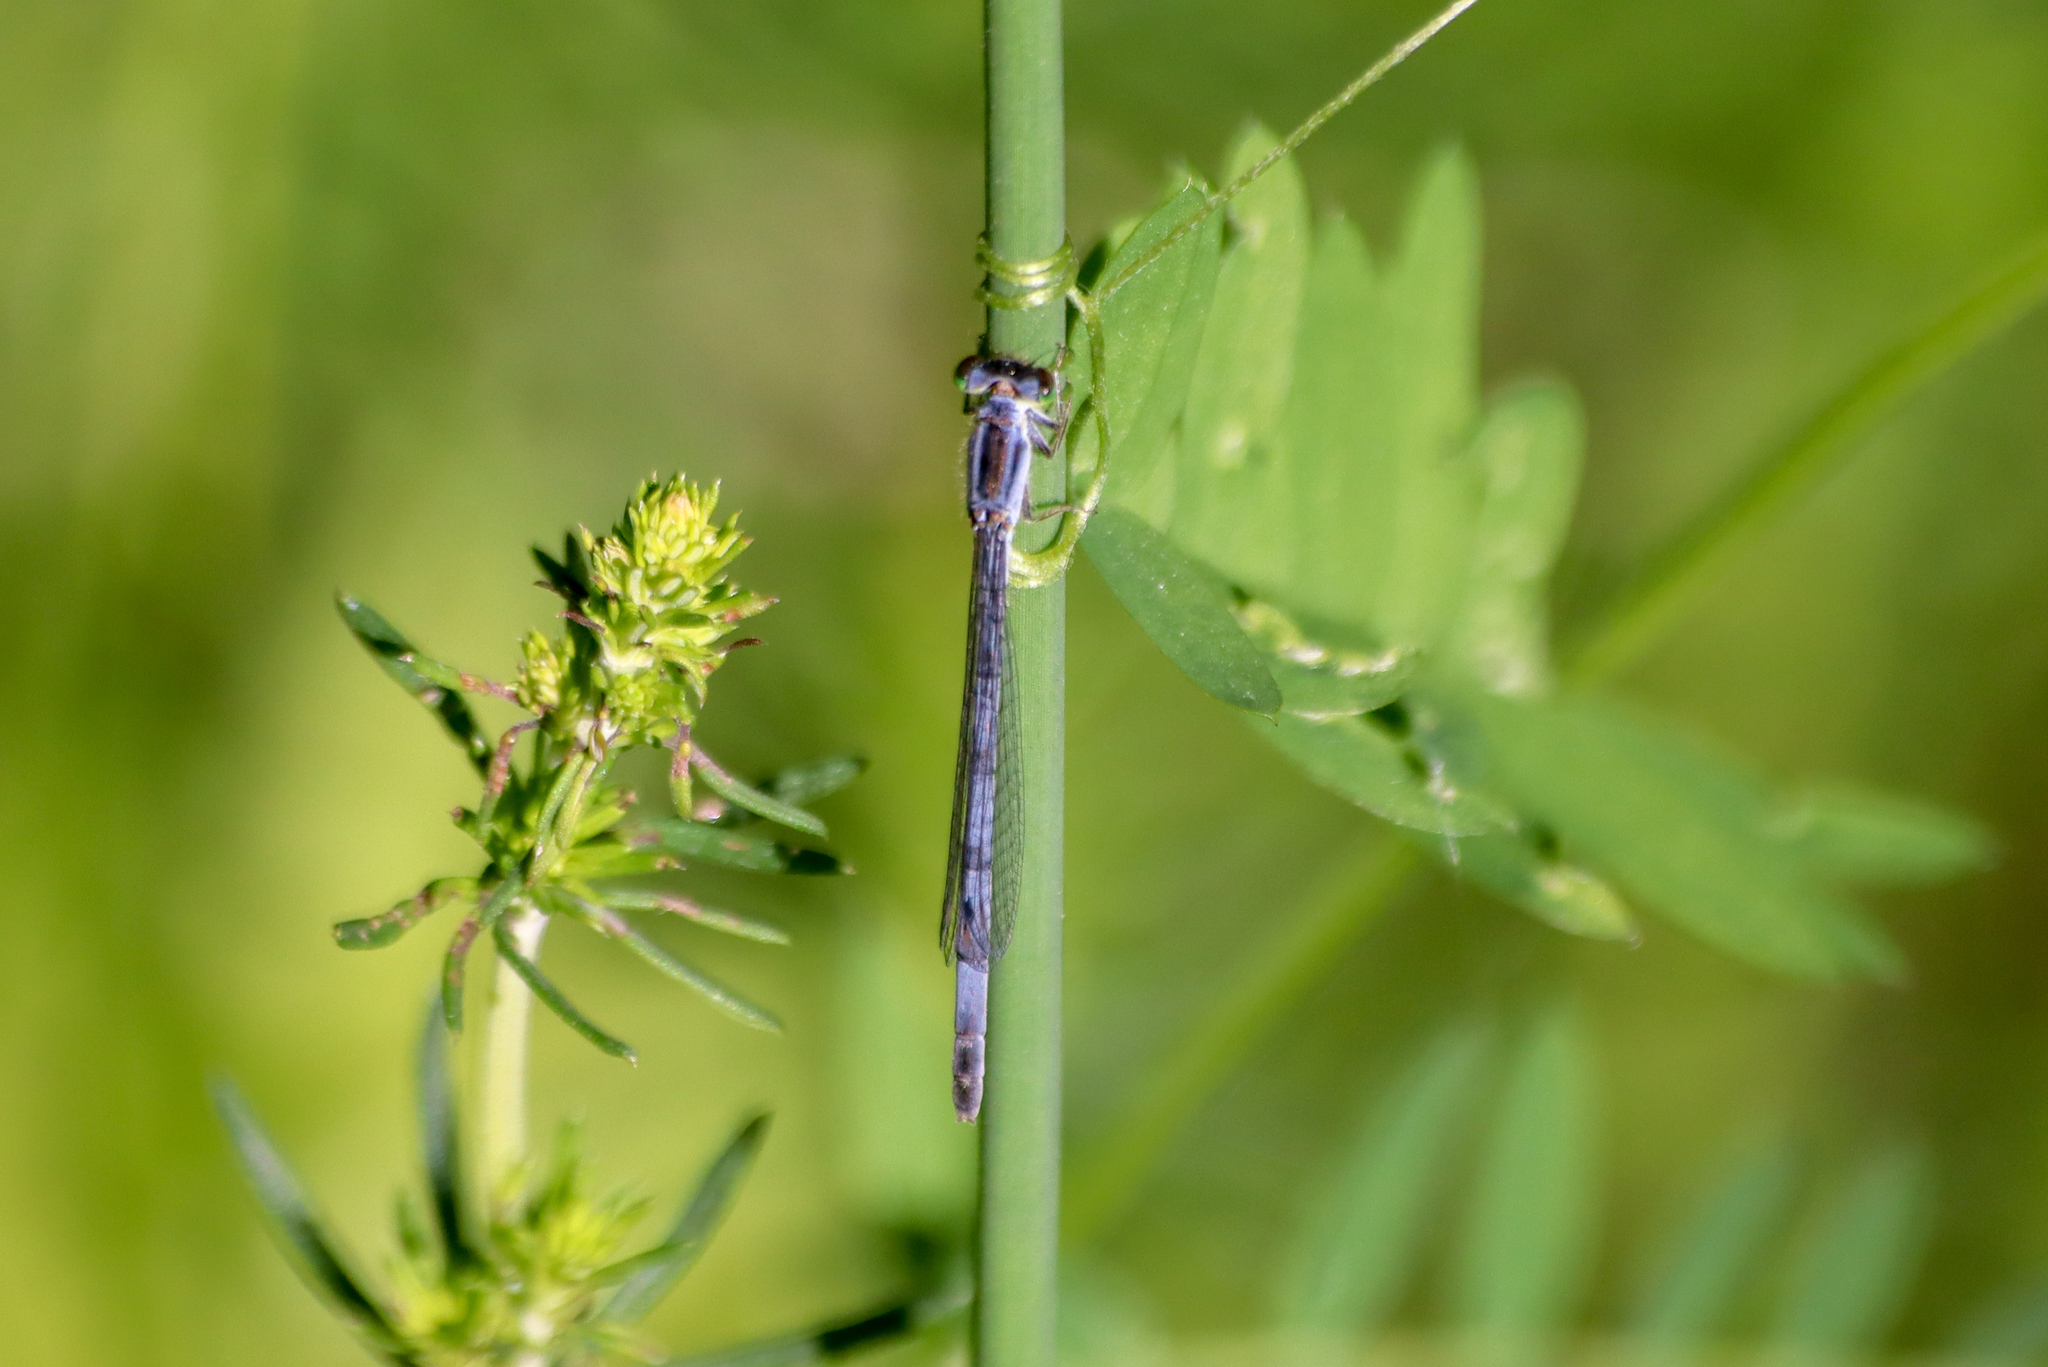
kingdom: Animalia
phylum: Arthropoda
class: Insecta
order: Odonata
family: Coenagrionidae
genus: Ischnura
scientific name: Ischnura verticalis
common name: Eastern forktail
